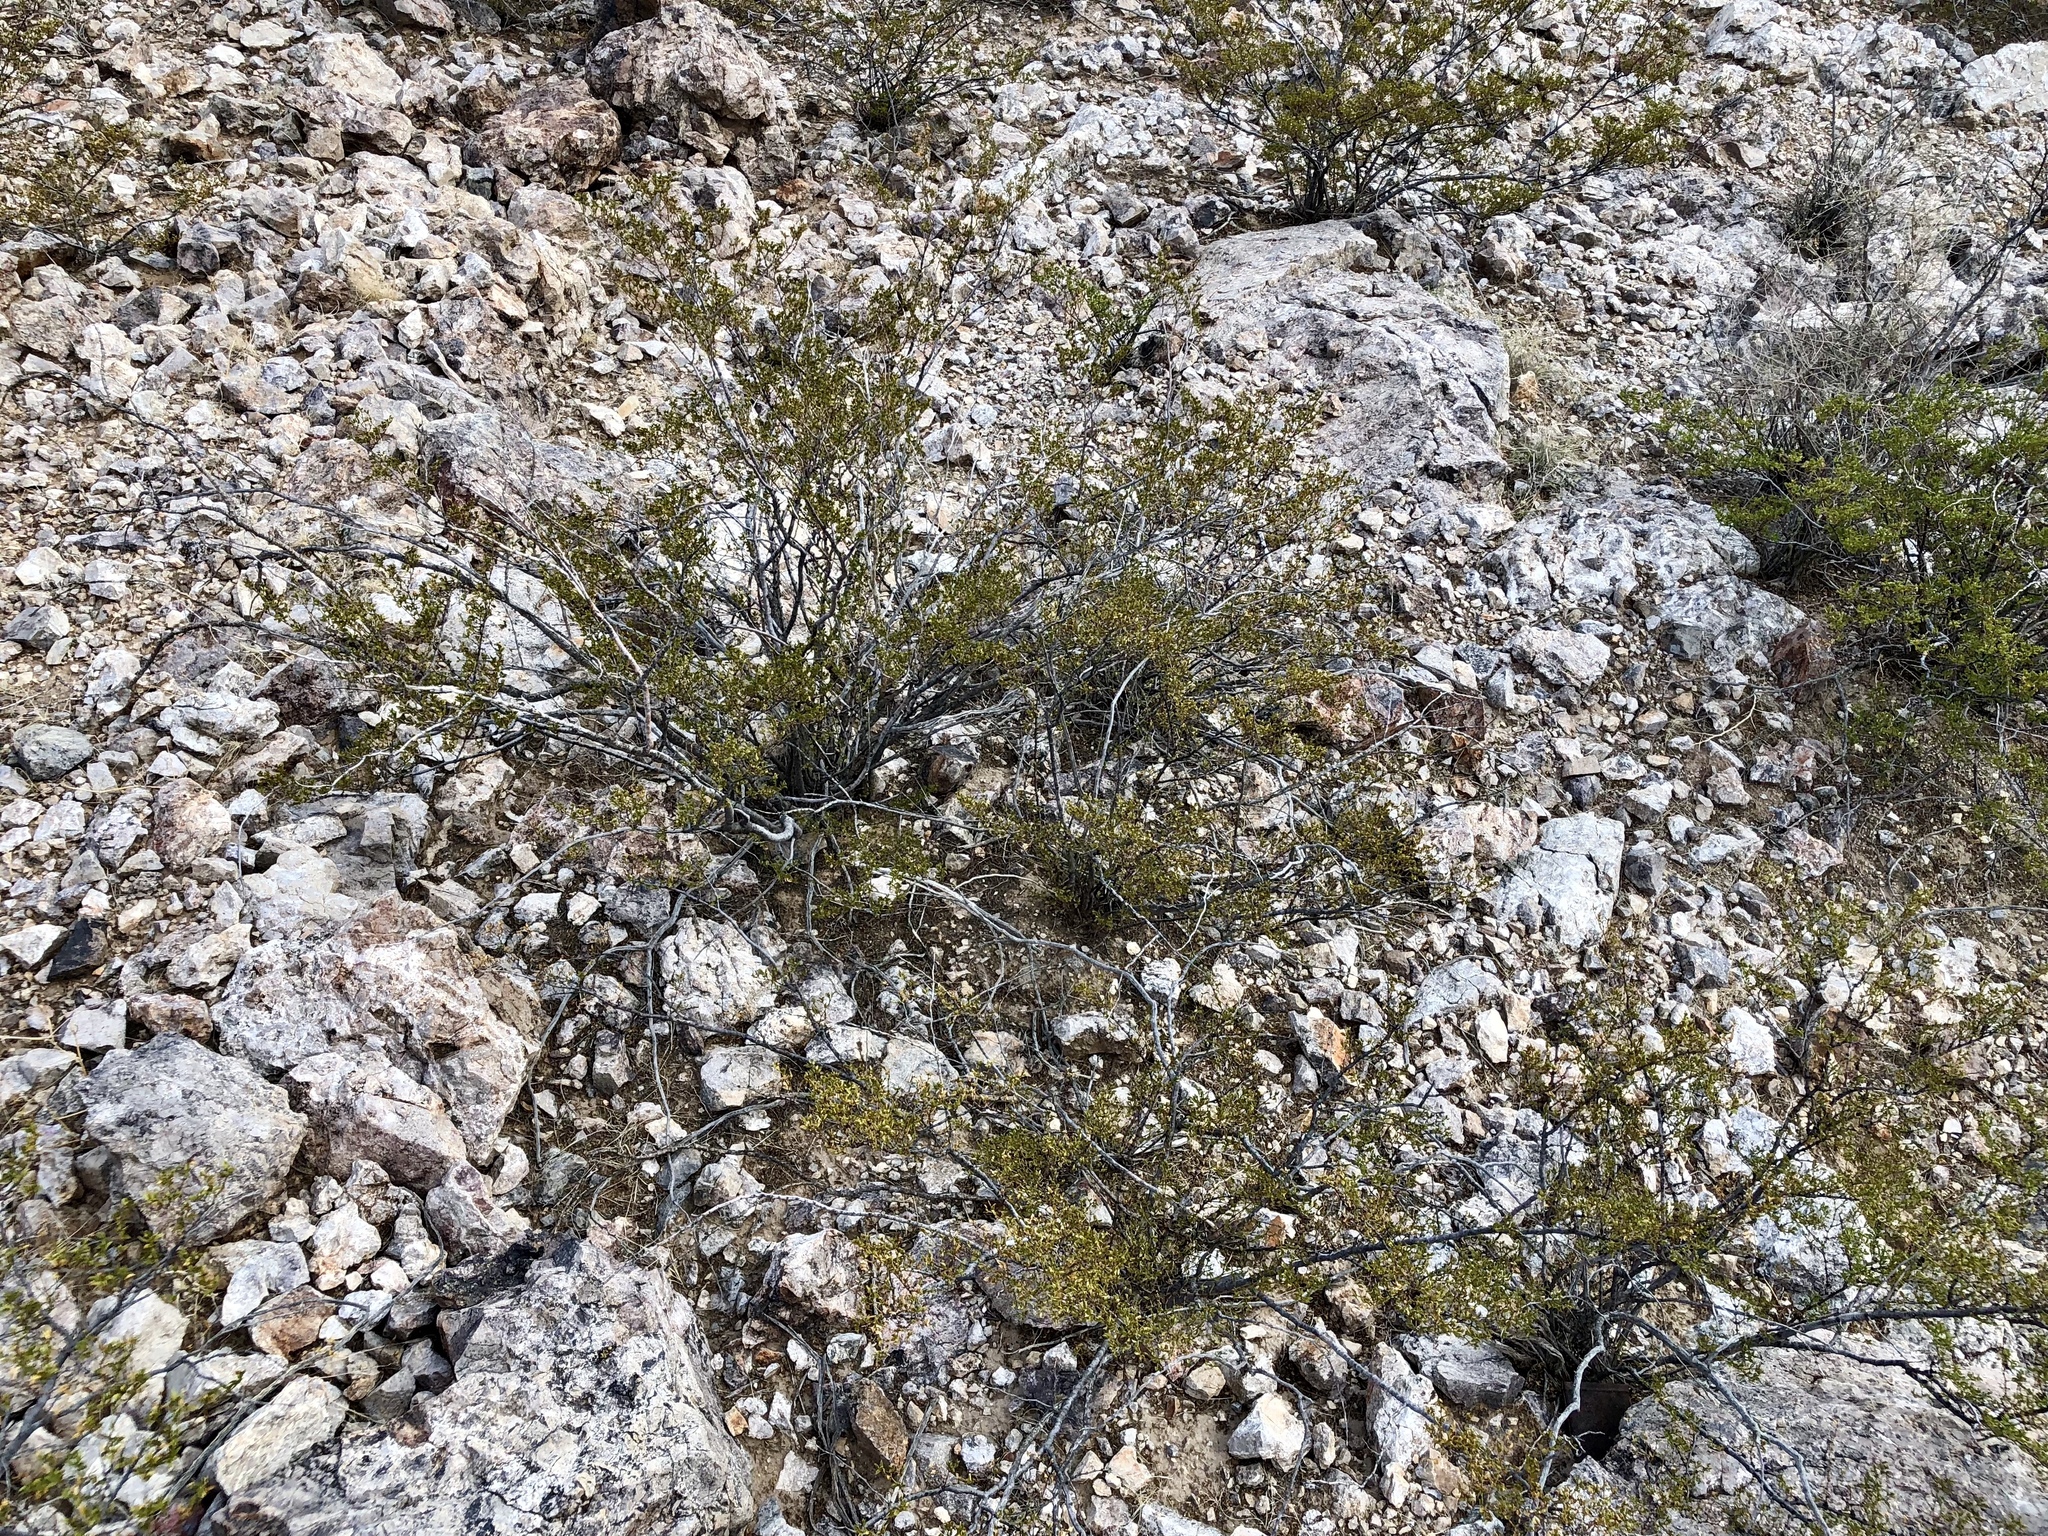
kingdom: Plantae
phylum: Tracheophyta
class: Magnoliopsida
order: Zygophyllales
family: Zygophyllaceae
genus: Larrea
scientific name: Larrea tridentata
